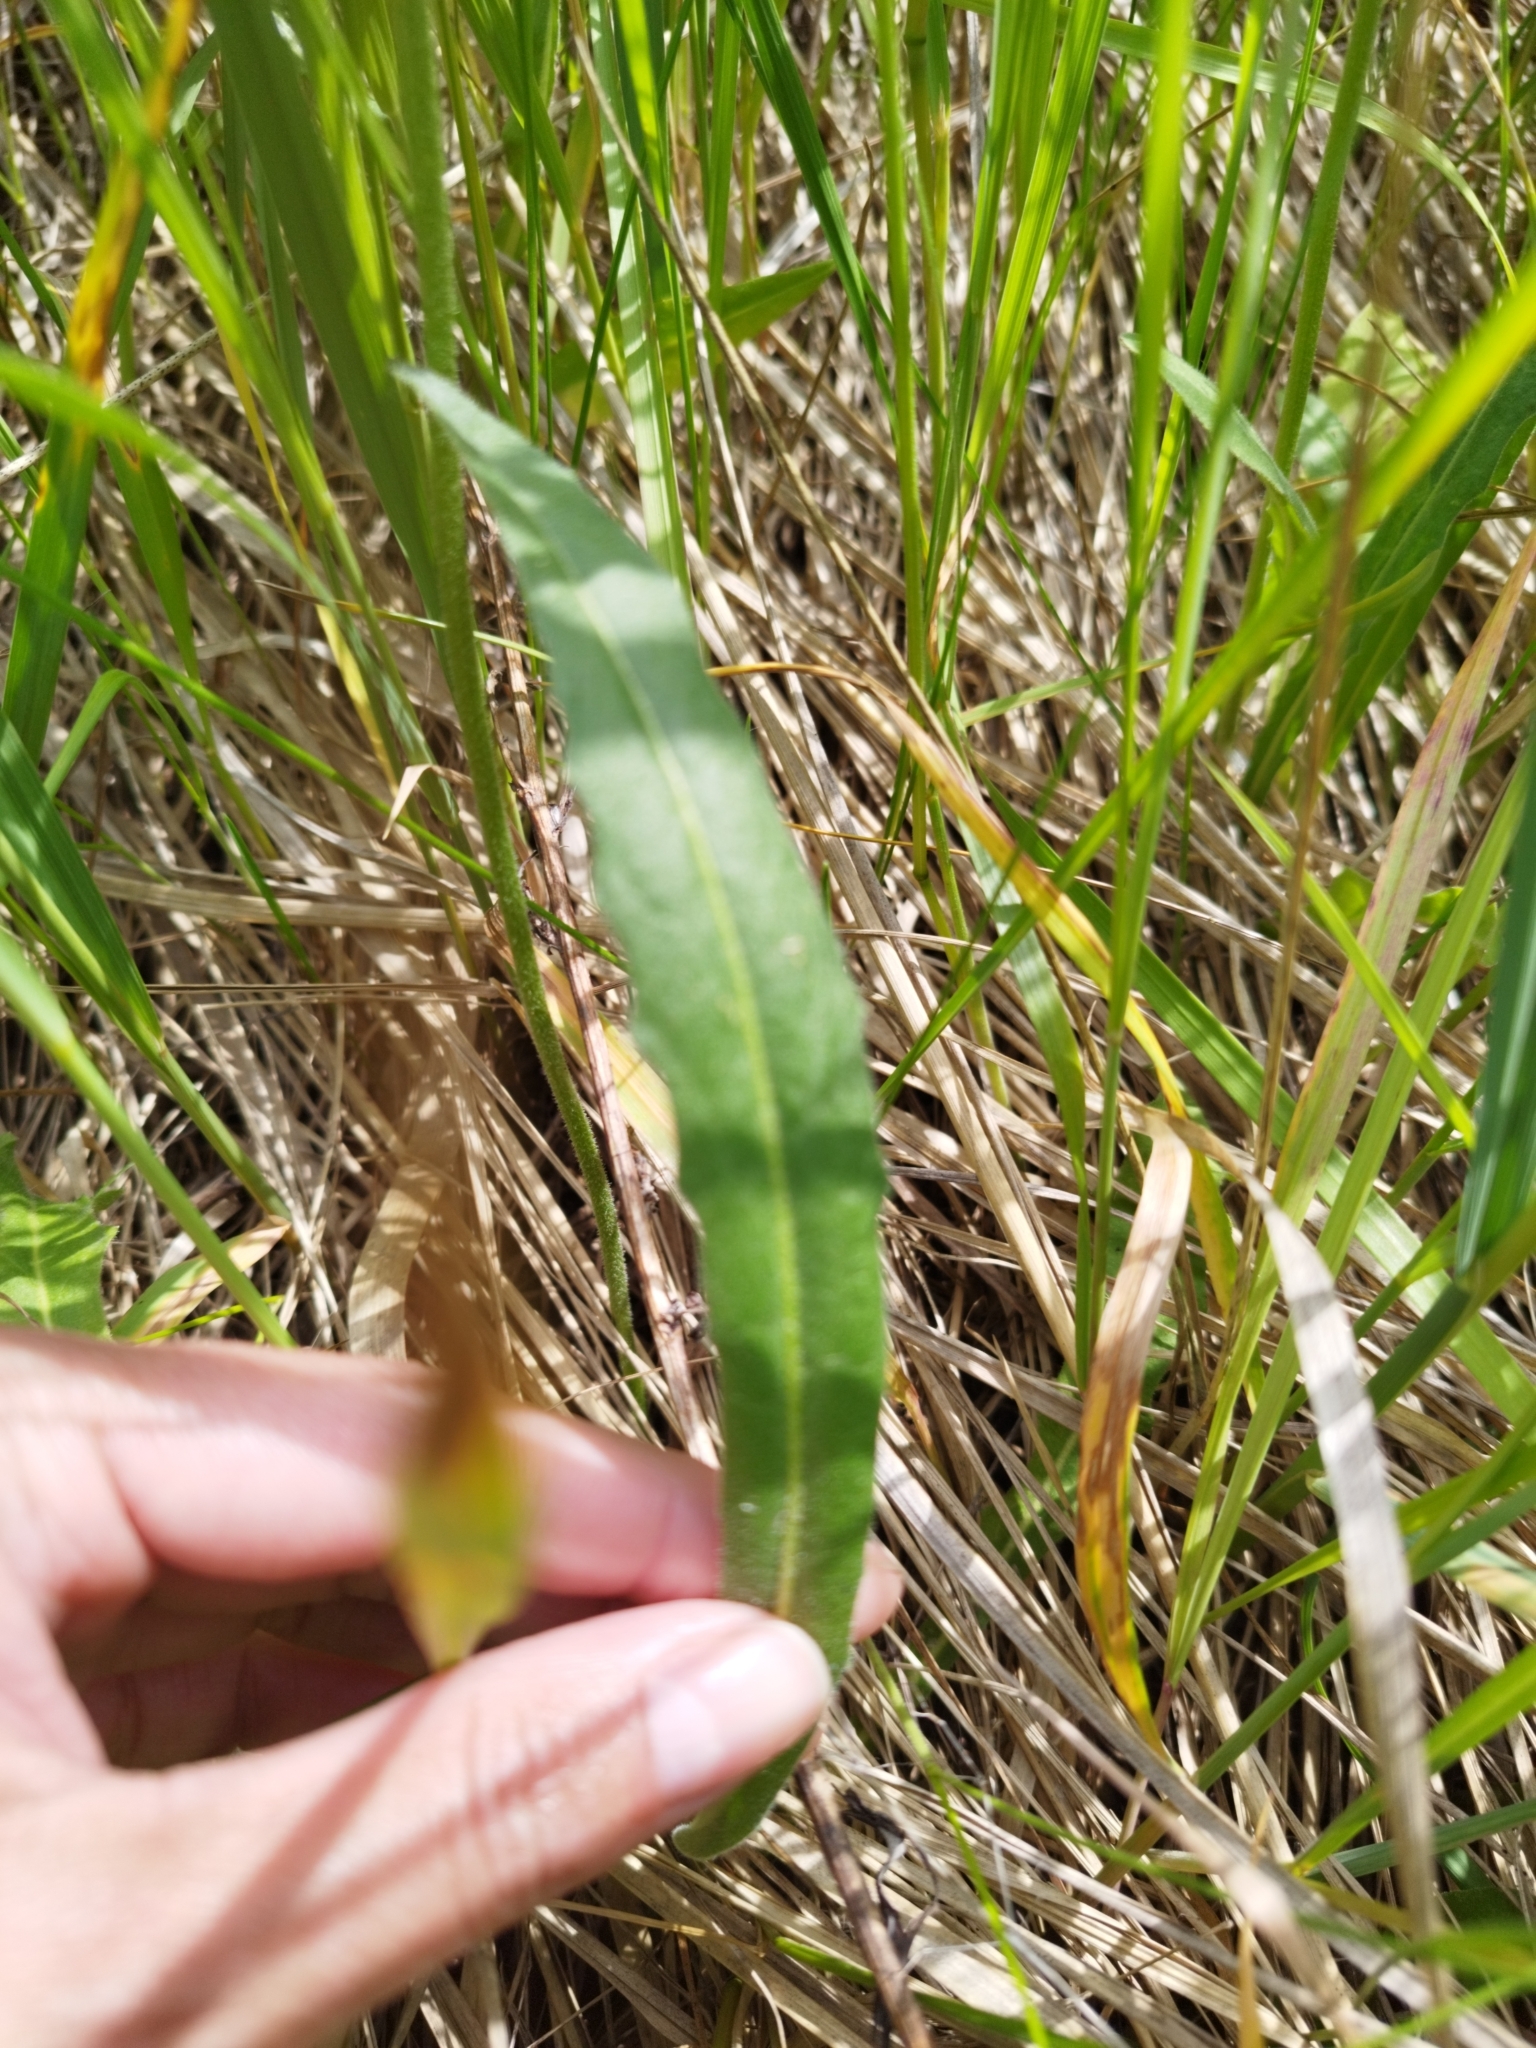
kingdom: Plantae
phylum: Tracheophyta
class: Magnoliopsida
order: Asterales
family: Asteraceae
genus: Leontodon
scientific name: Leontodon hispidus
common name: Rough hawkbit
